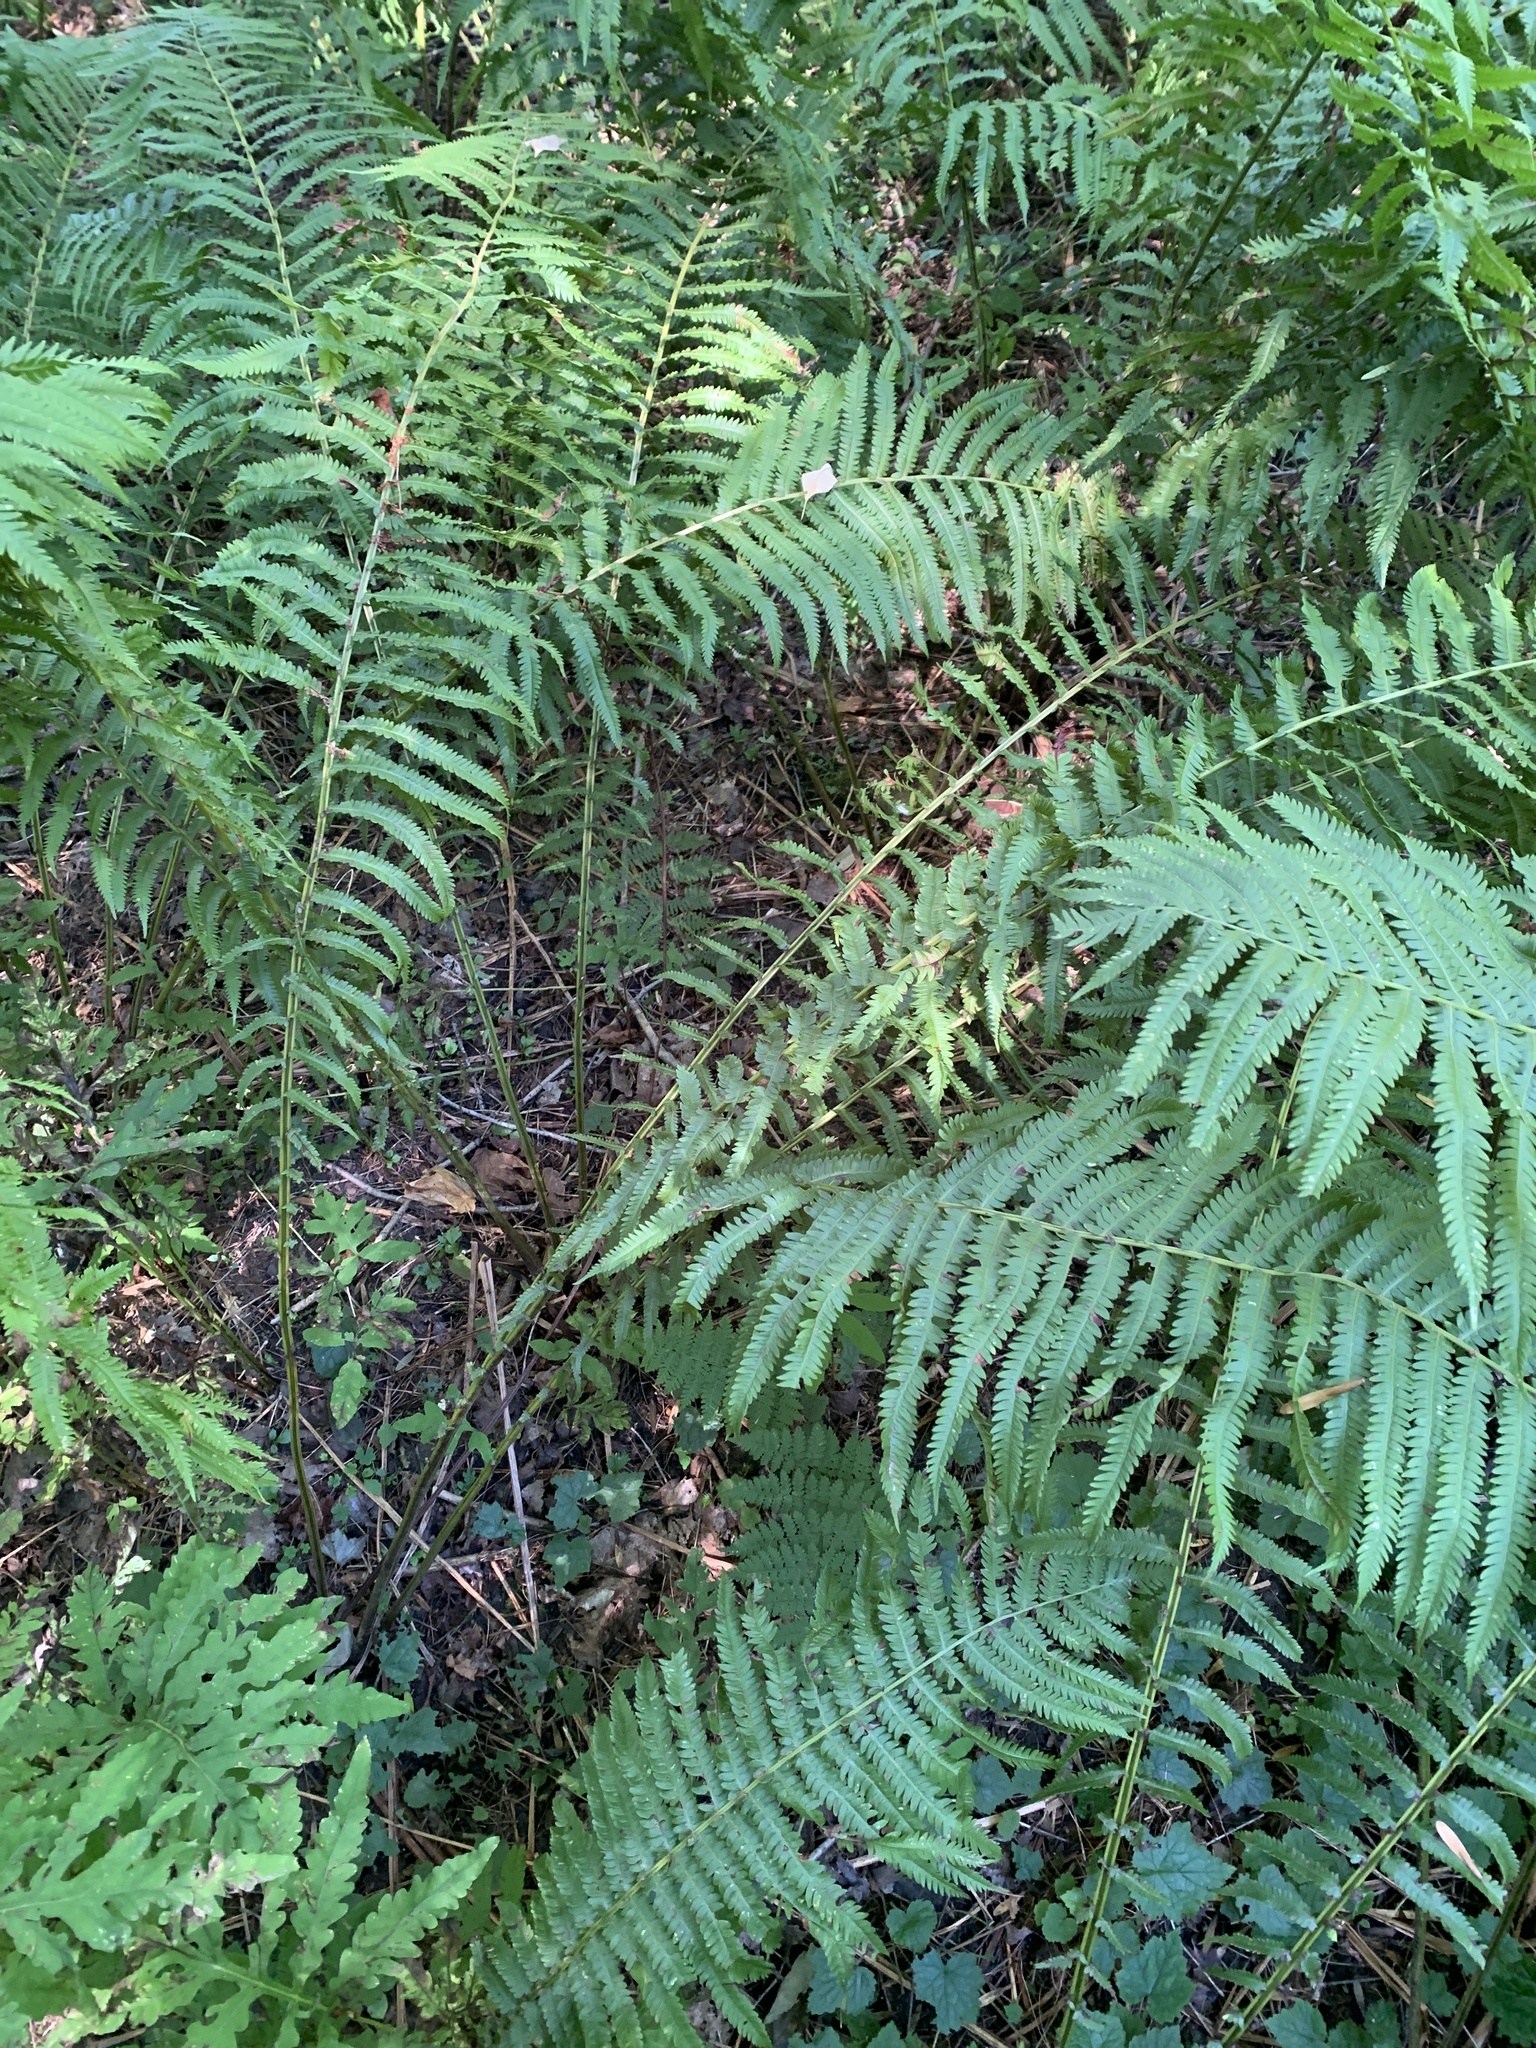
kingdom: Plantae
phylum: Tracheophyta
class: Polypodiopsida
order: Polypodiales
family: Onocleaceae
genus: Matteuccia
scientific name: Matteuccia struthiopteris
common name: Ostrich fern
